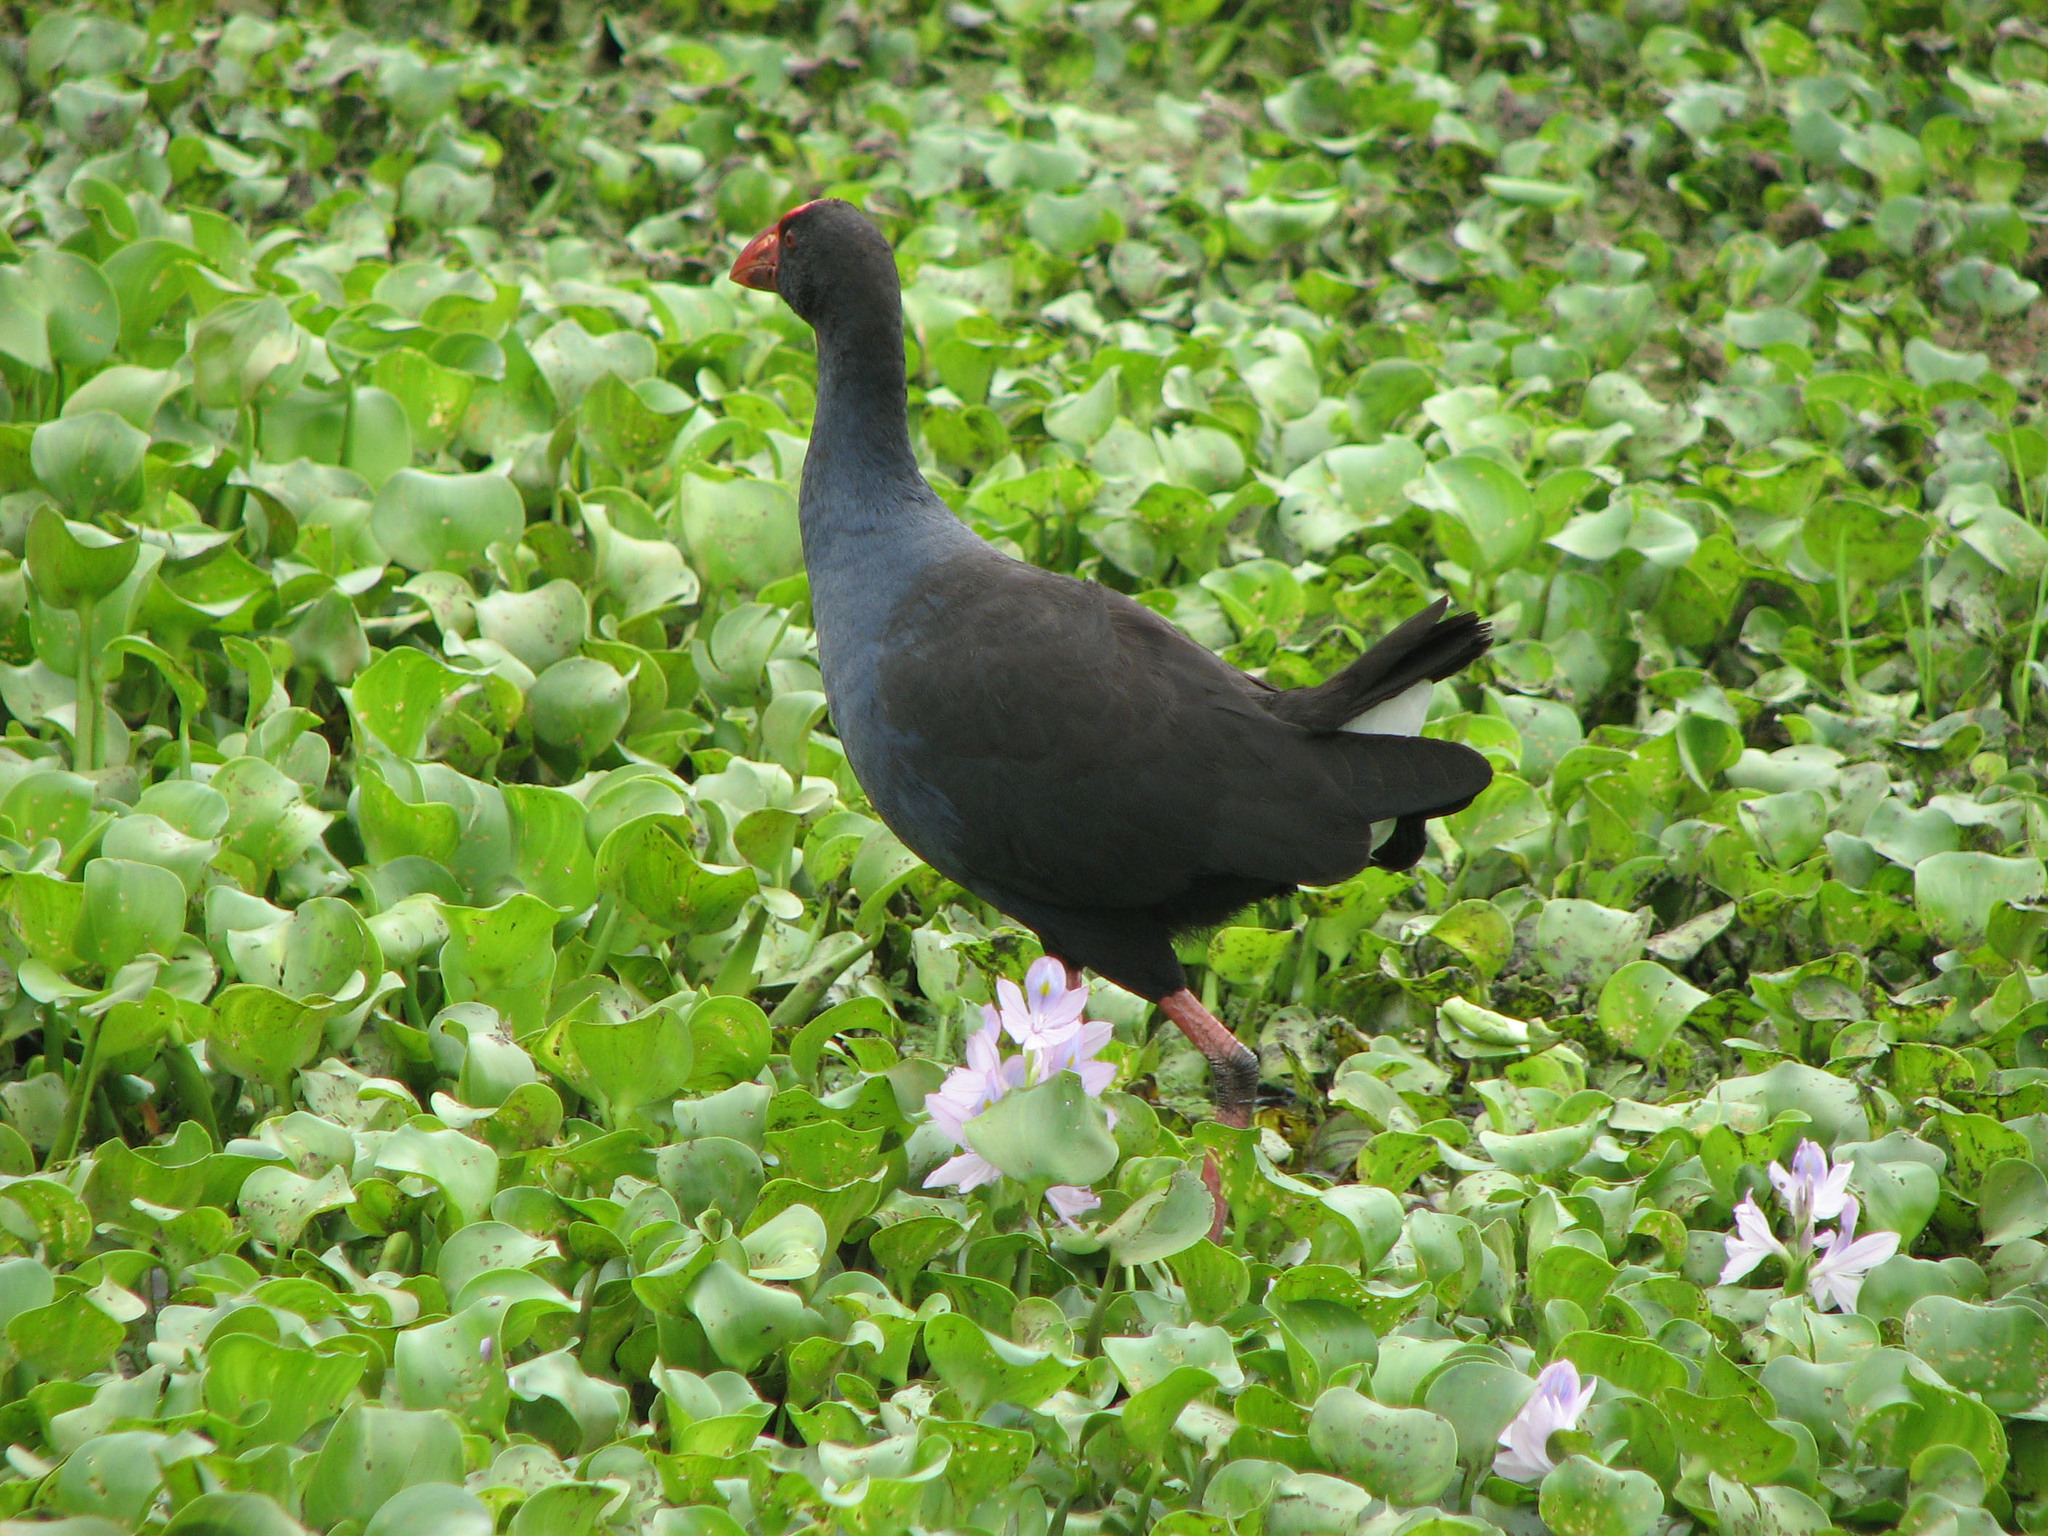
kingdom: Animalia
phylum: Chordata
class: Aves
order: Gruiformes
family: Rallidae
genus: Porphyrio
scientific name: Porphyrio melanotus
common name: Australasian swamphen
